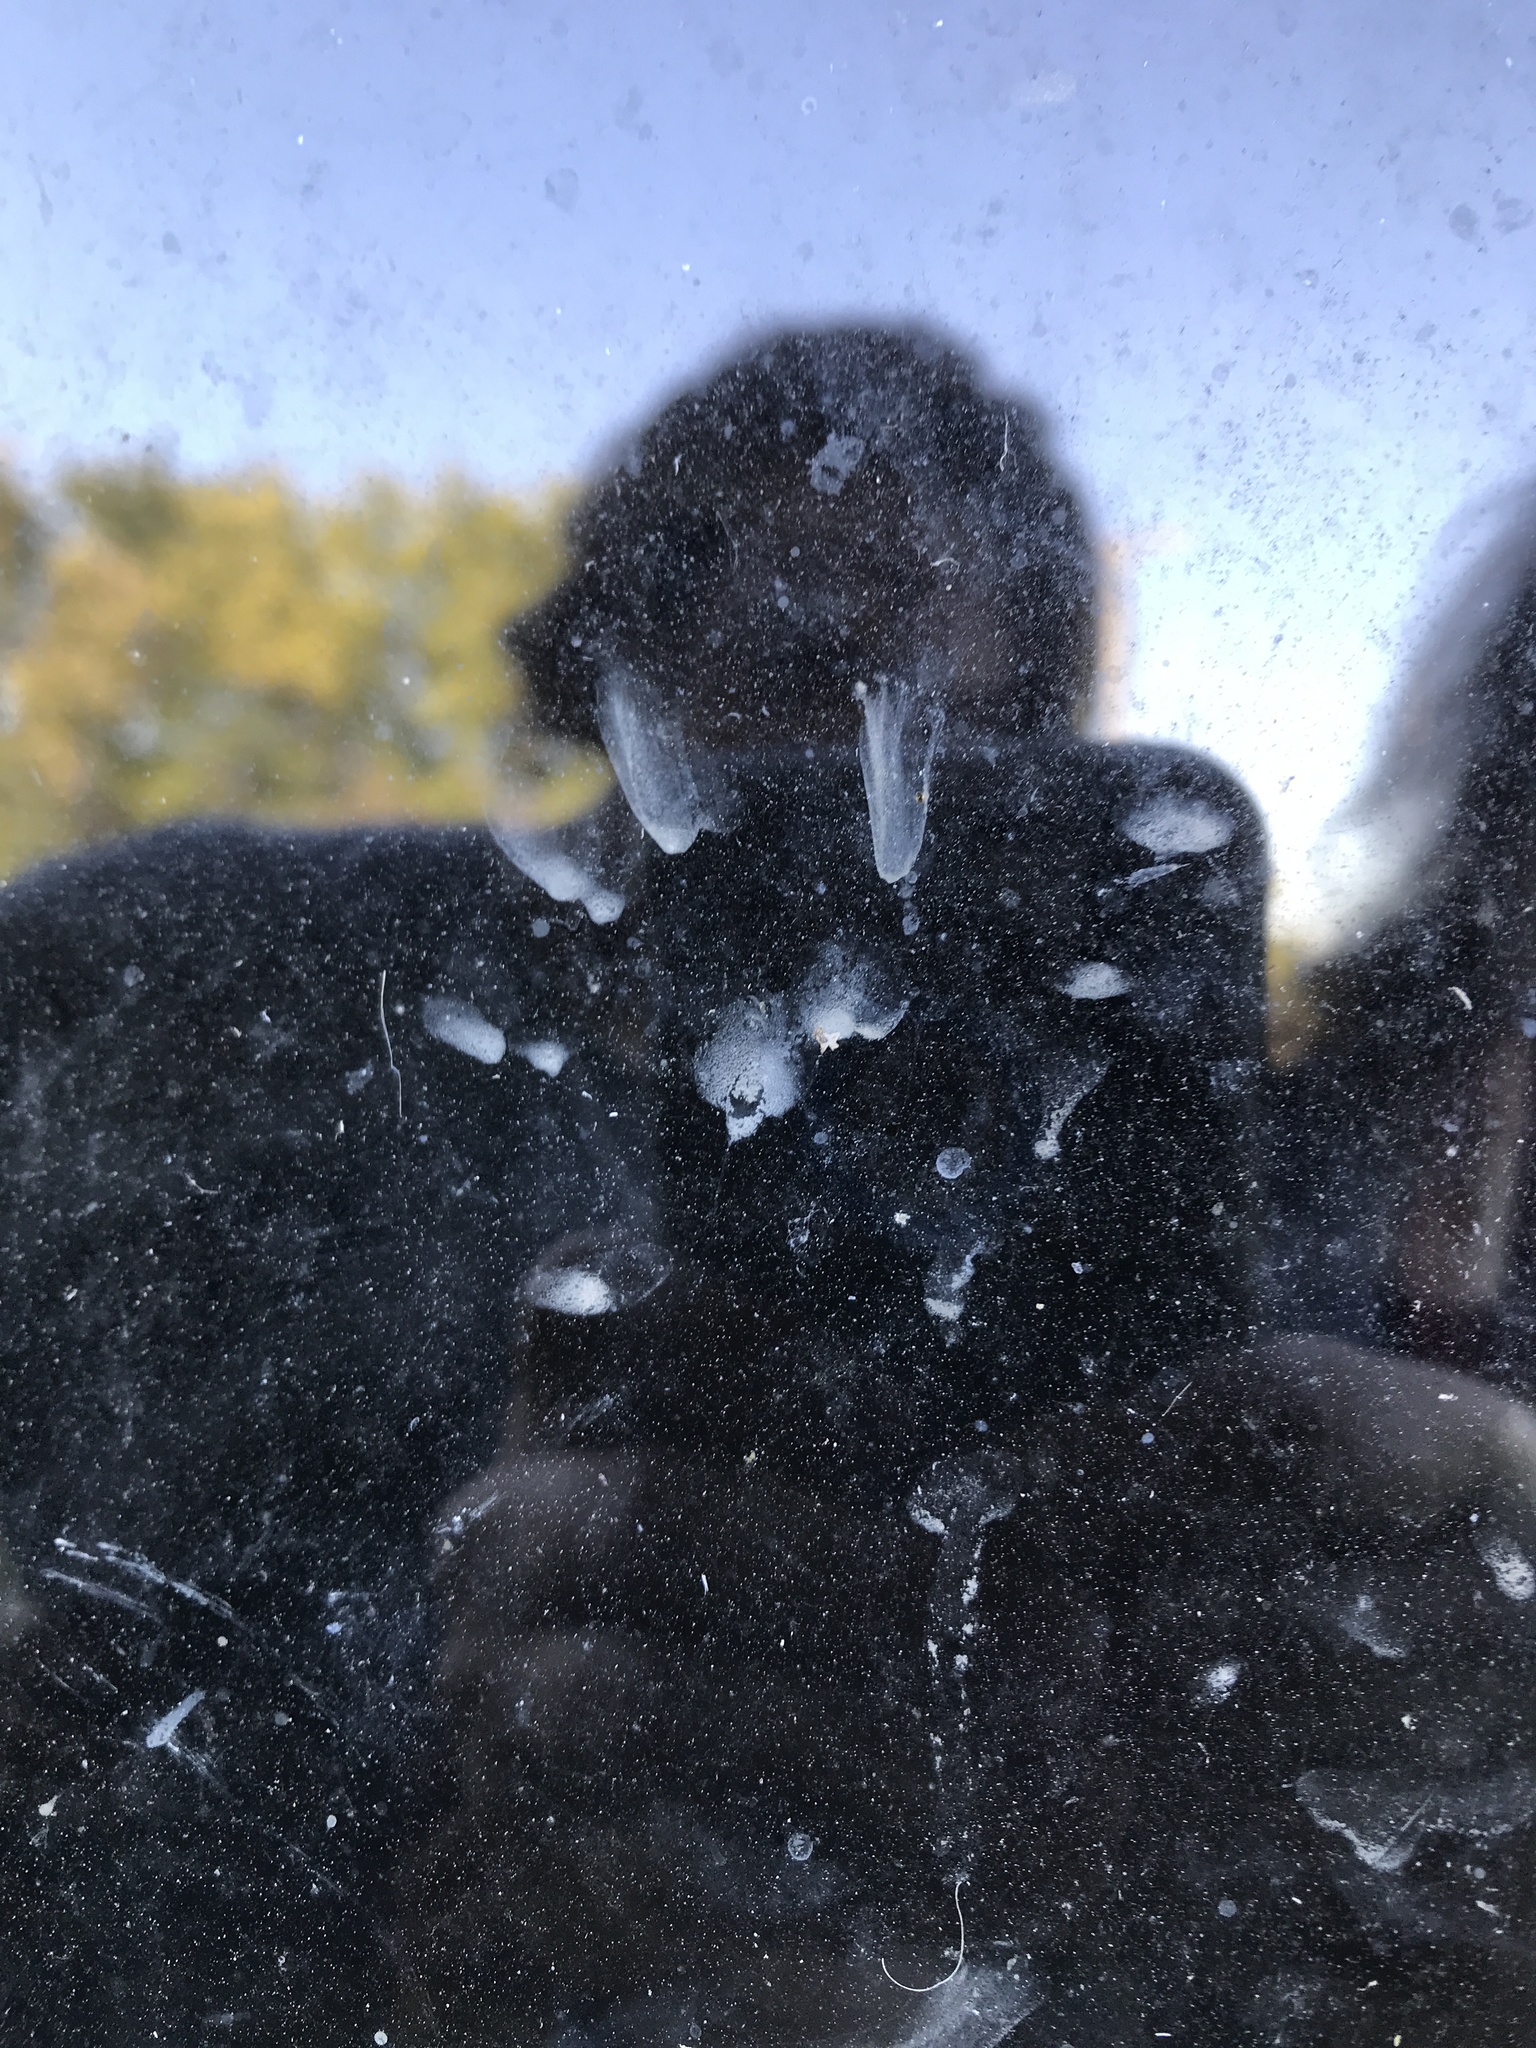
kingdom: Animalia
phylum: Chordata
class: Mammalia
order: Carnivora
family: Procyonidae
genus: Procyon
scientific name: Procyon lotor
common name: Raccoon
